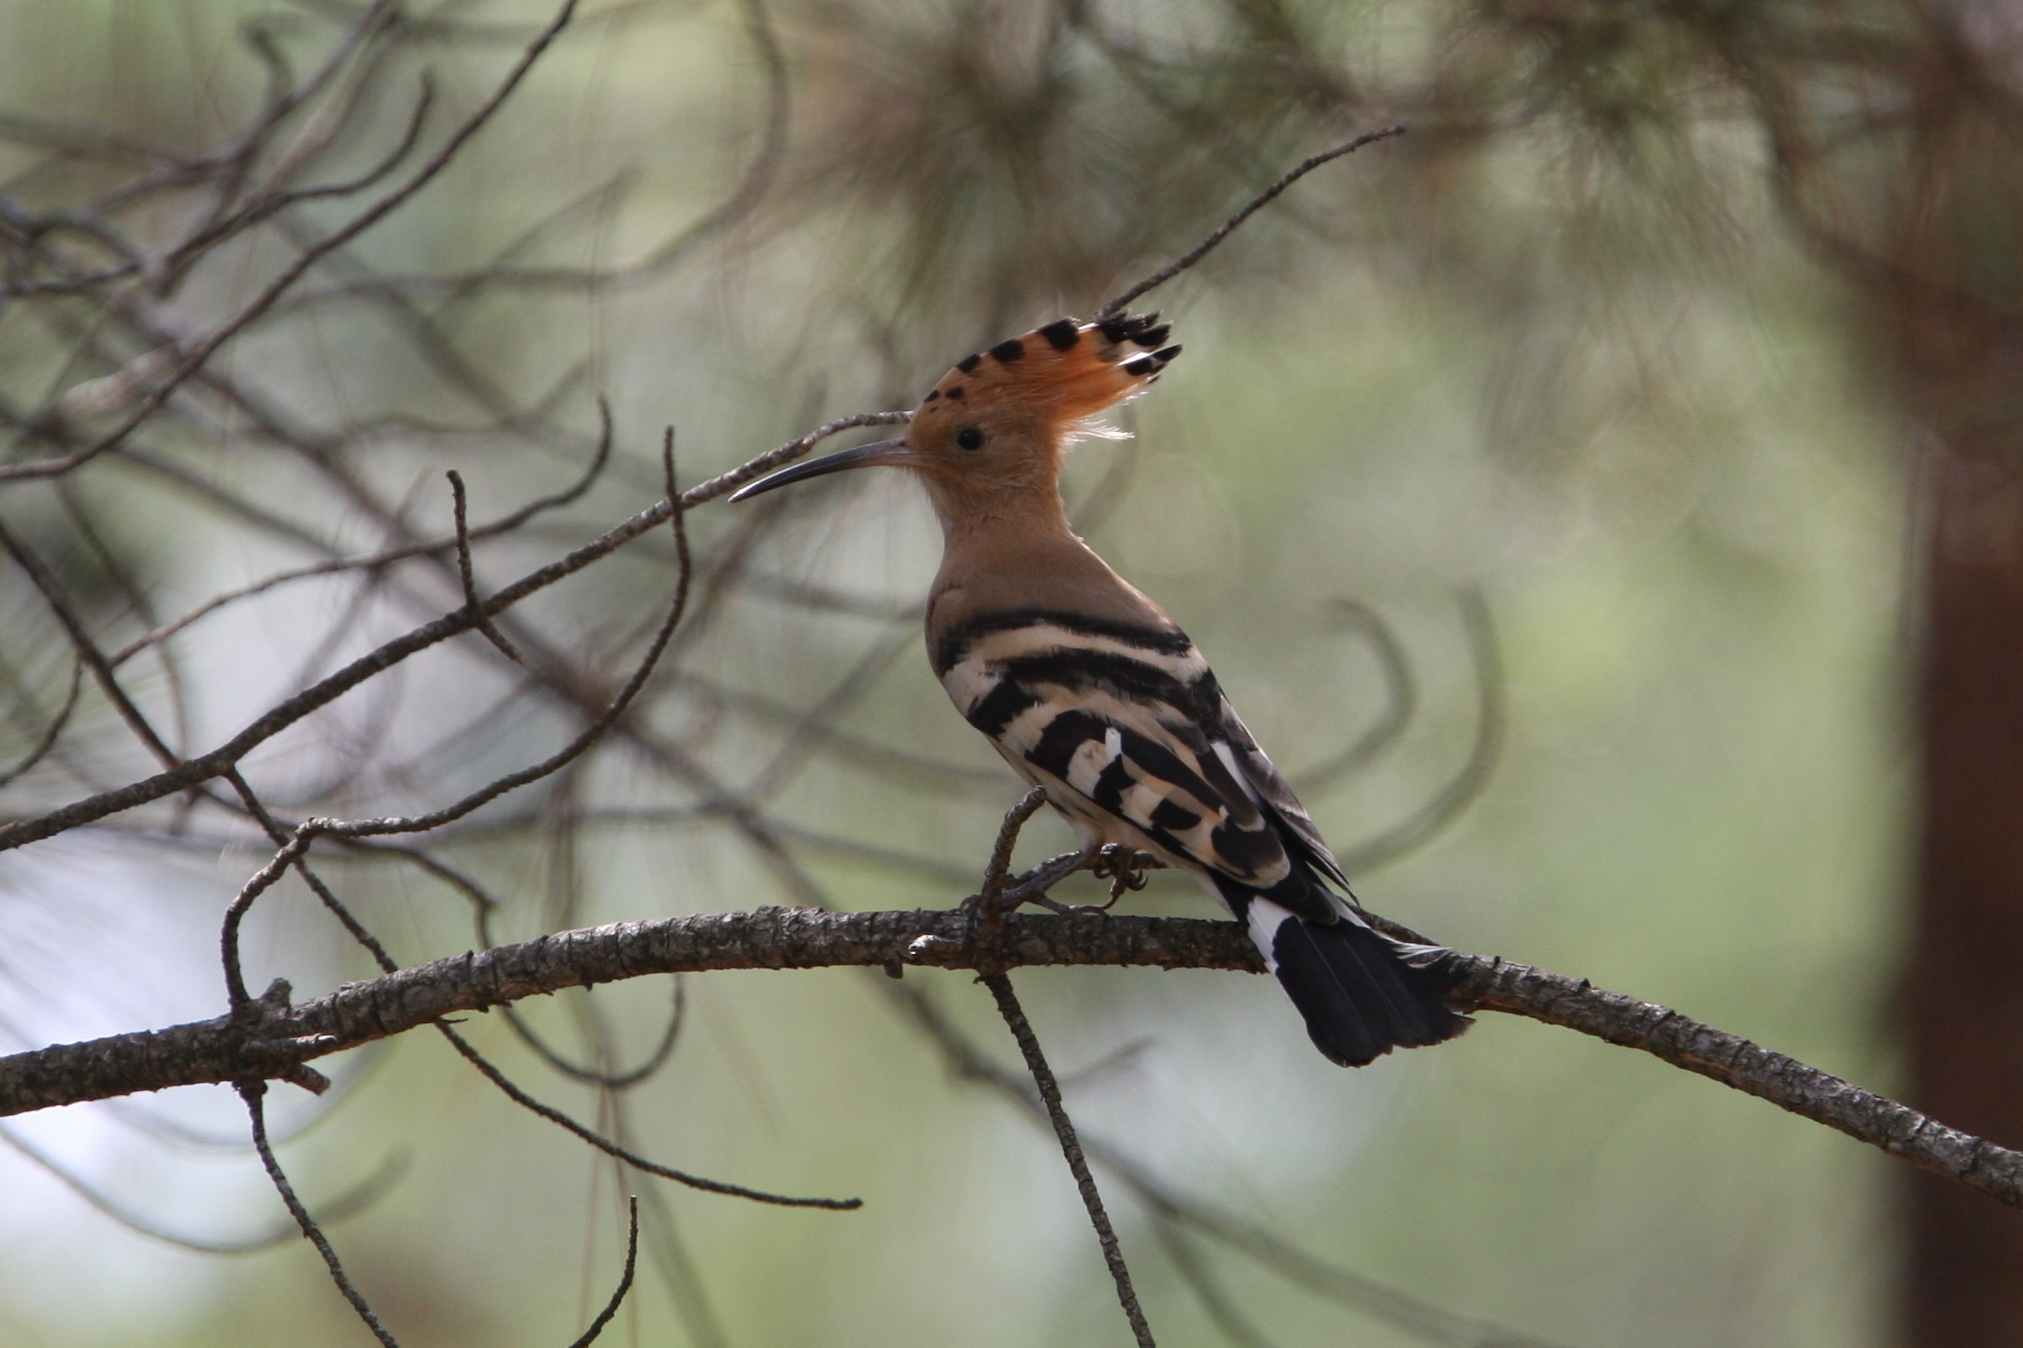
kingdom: Animalia
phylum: Chordata
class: Aves
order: Bucerotiformes
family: Upupidae
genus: Upupa
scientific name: Upupa epops
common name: Eurasian hoopoe
